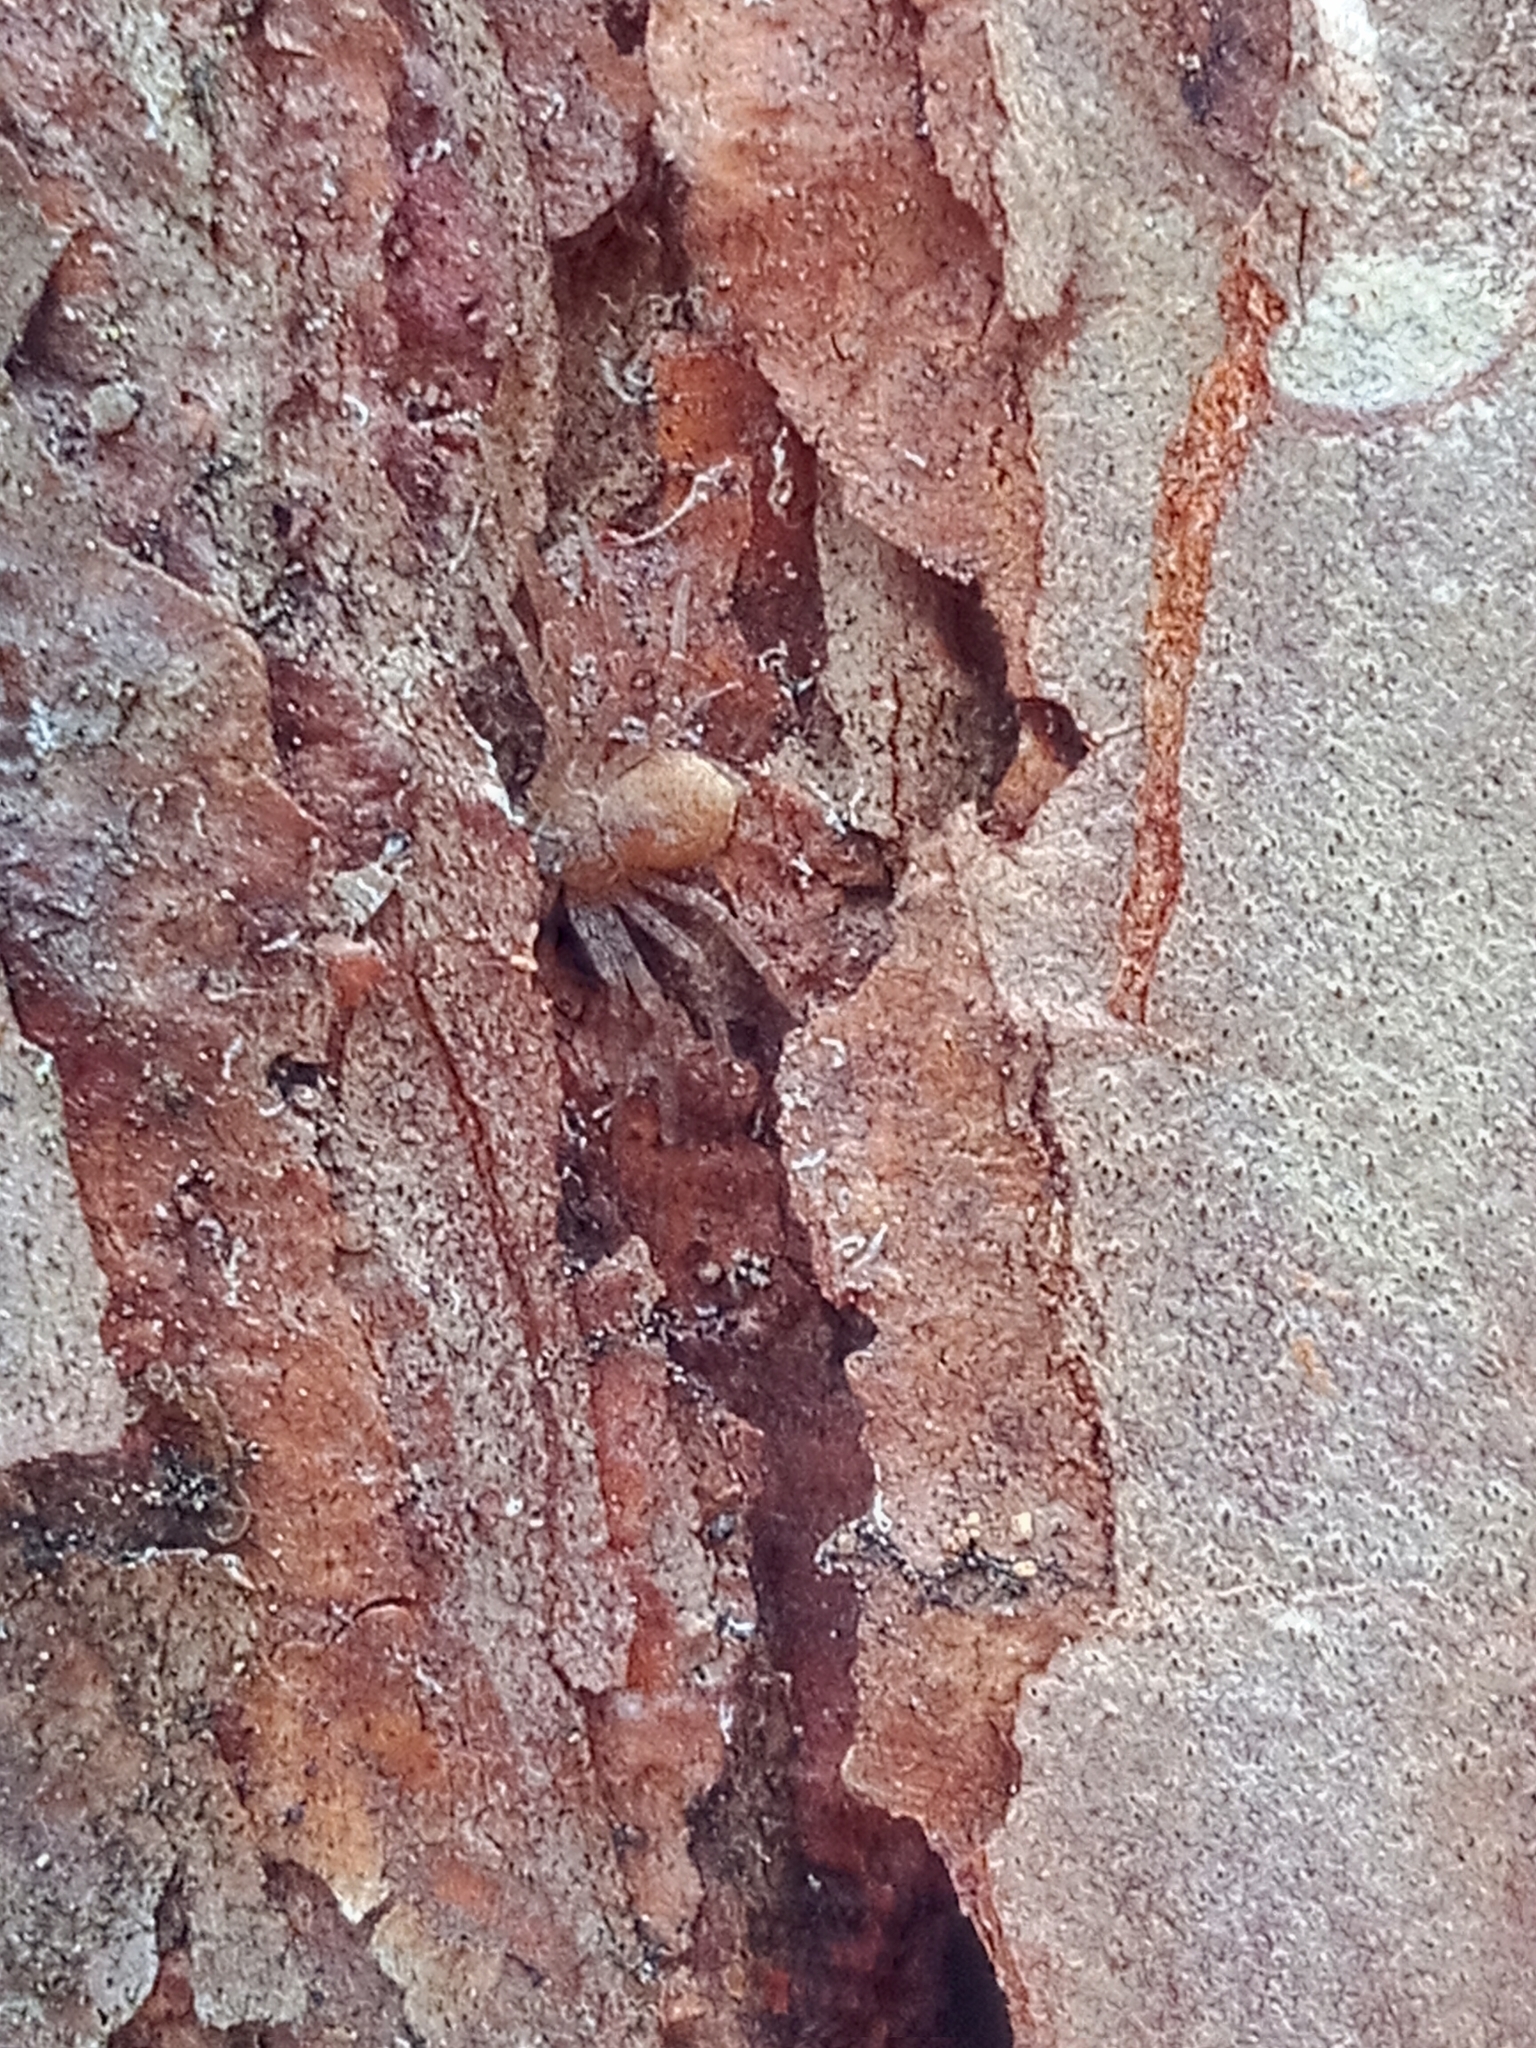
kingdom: Animalia
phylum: Arthropoda
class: Arachnida
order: Araneae
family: Philodromidae
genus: Philodromus
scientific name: Philodromus fuscomarginatus
